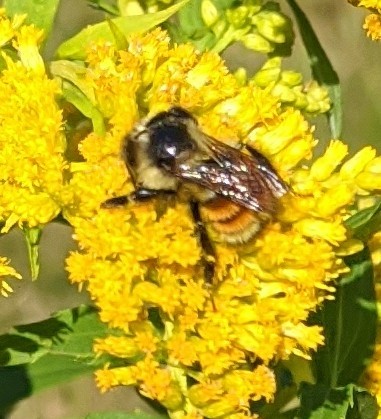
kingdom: Animalia
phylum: Arthropoda
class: Insecta
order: Hymenoptera
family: Apidae
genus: Bombus
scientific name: Bombus ternarius
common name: Tri-colored bumble bee
